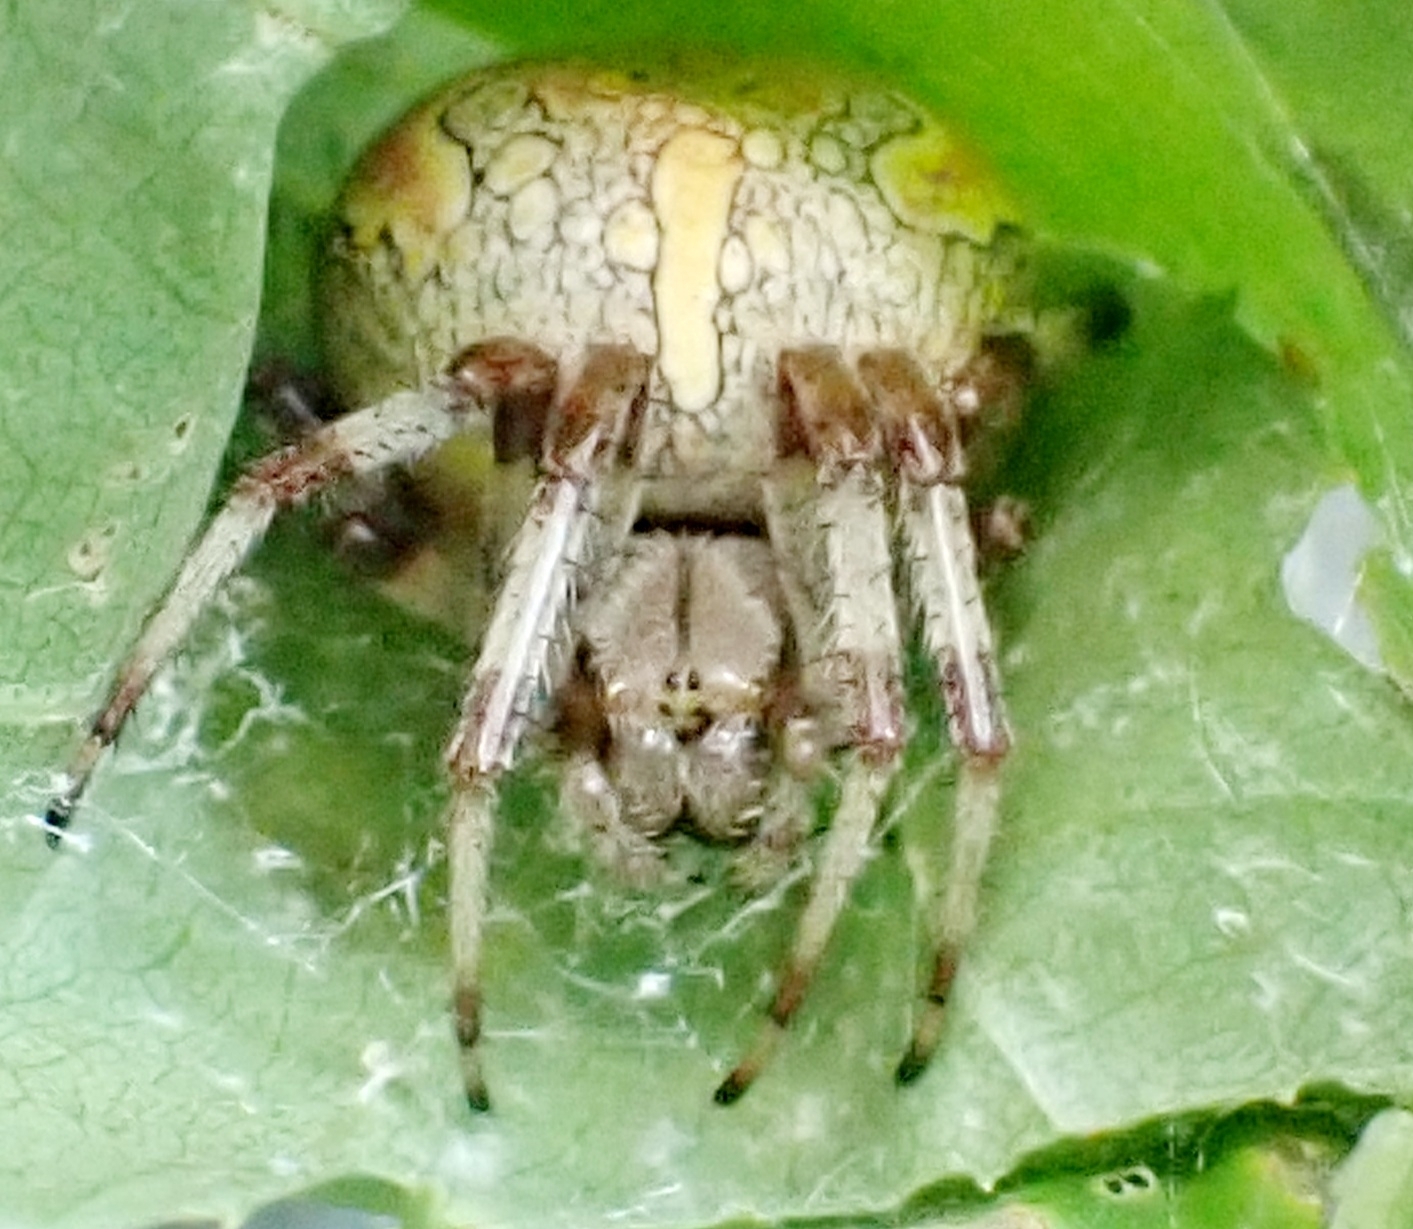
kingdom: Animalia
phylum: Arthropoda
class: Arachnida
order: Araneae
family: Araneidae
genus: Araneus
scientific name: Araneus marmoreus
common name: Marbled orbweaver
